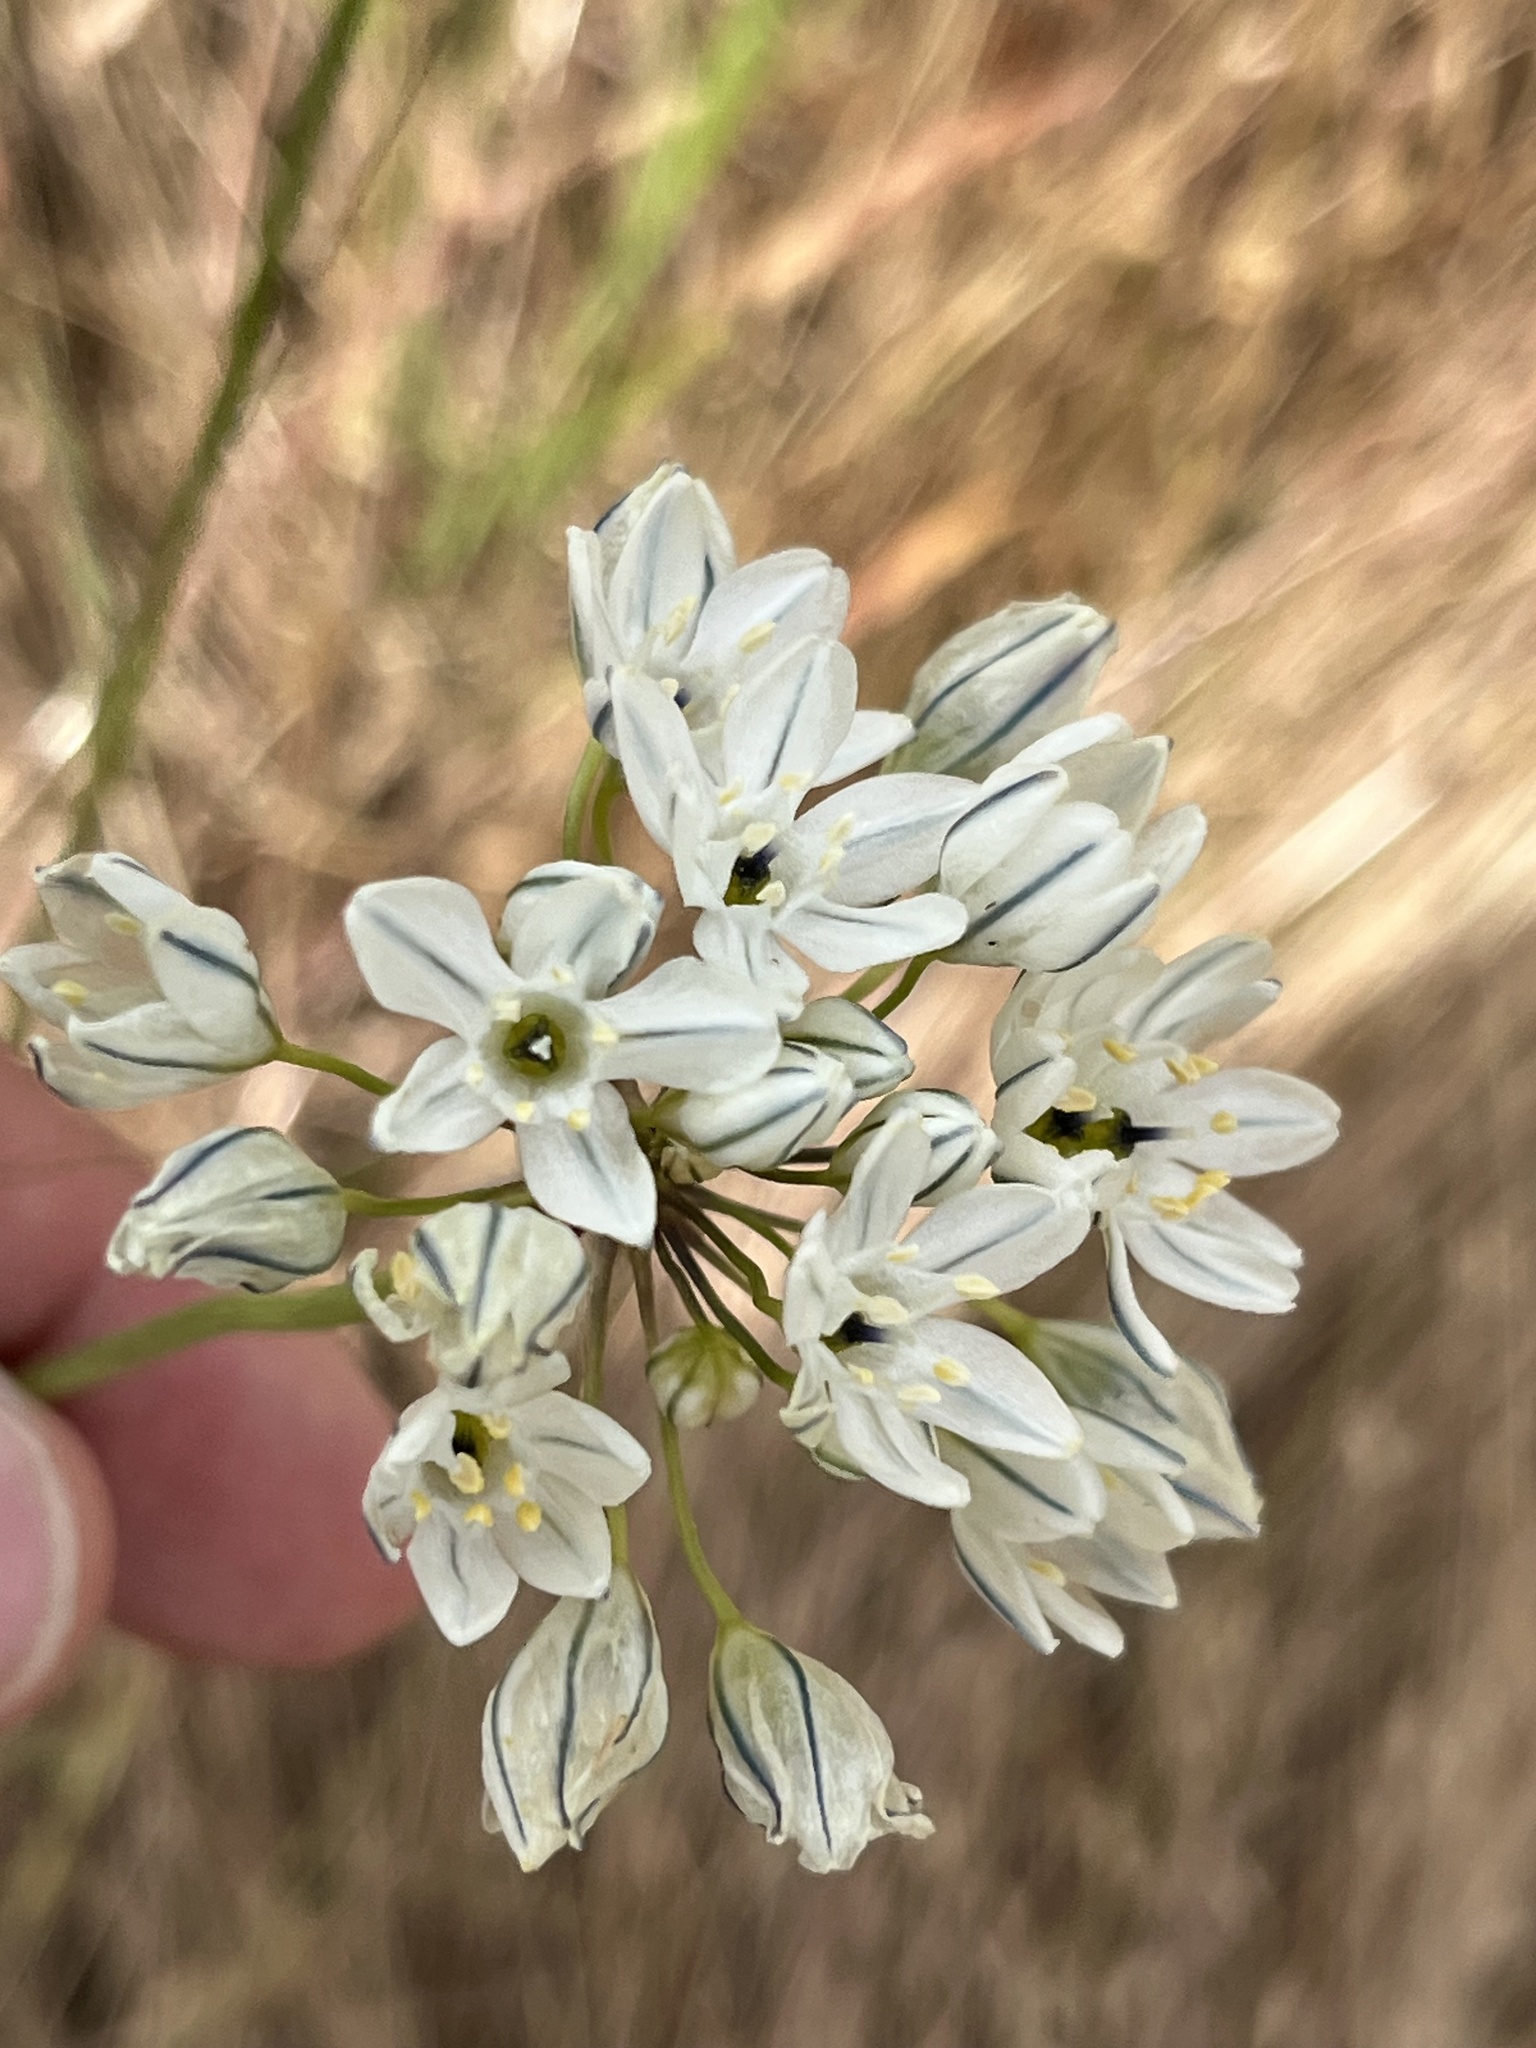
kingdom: Plantae
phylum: Tracheophyta
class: Liliopsida
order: Asparagales
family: Asparagaceae
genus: Triteleia
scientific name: Triteleia hyacinthina
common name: White brodiaea
